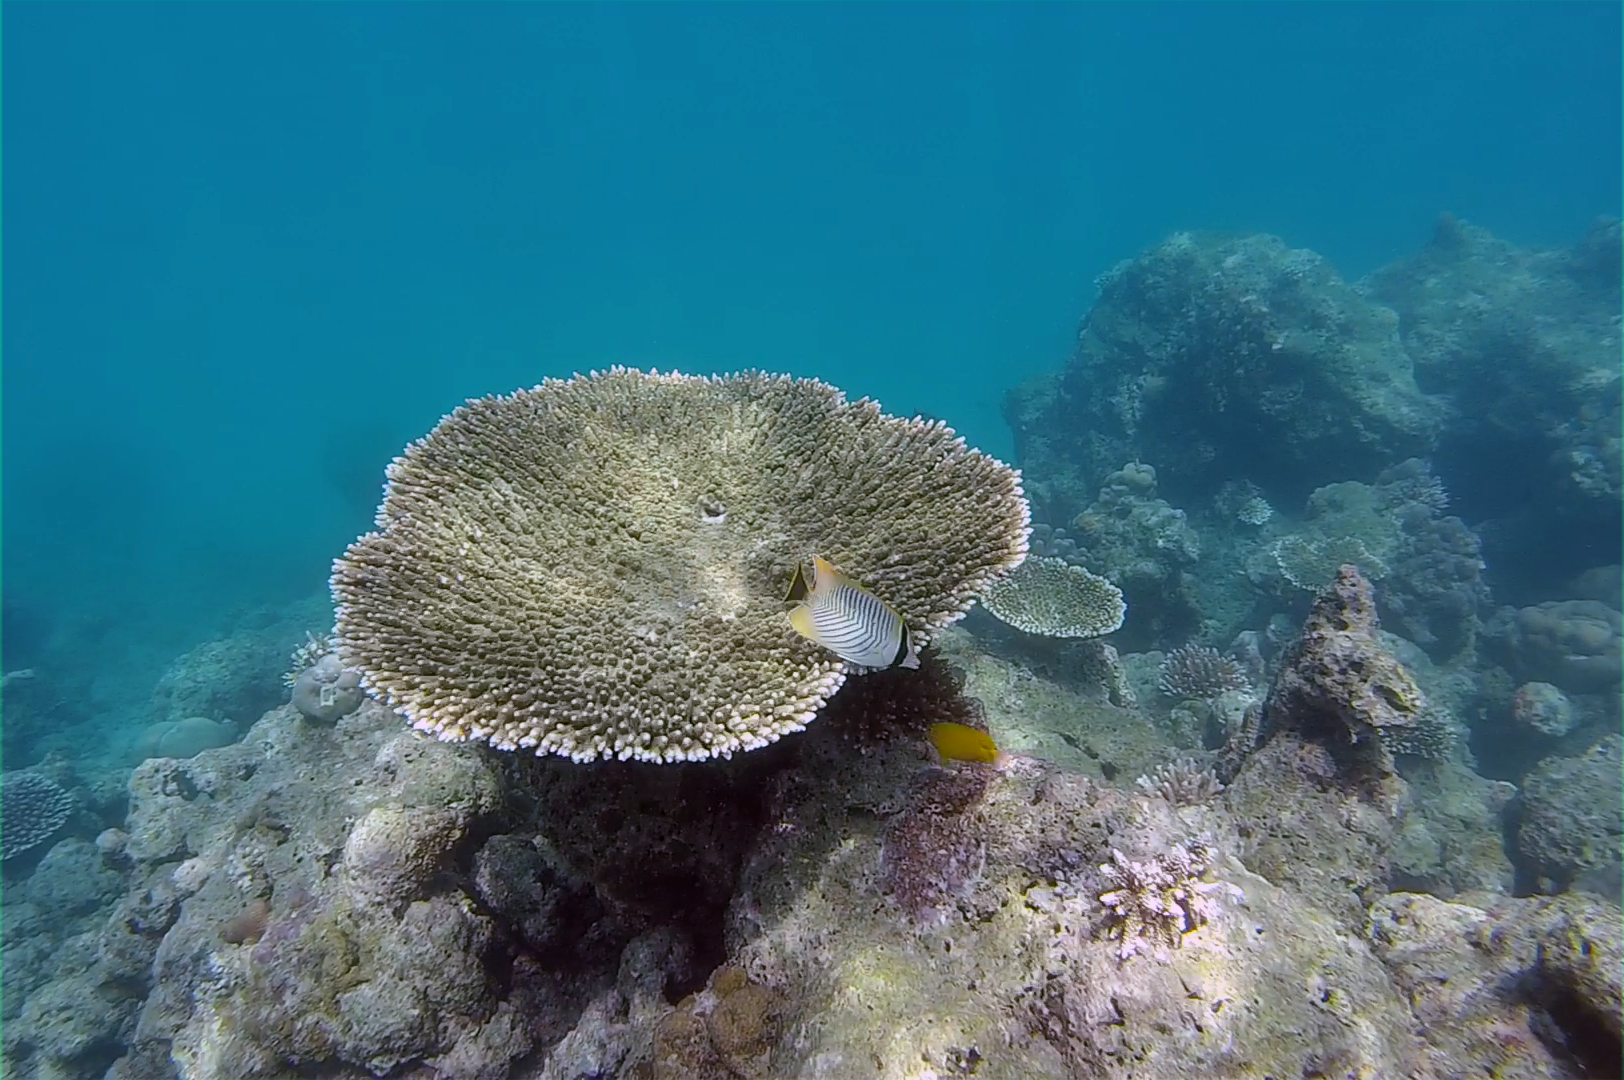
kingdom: Animalia
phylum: Chordata
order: Perciformes
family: Chaetodontidae
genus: Chaetodon
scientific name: Chaetodon trifascialis
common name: Chevroned butterflyfish
